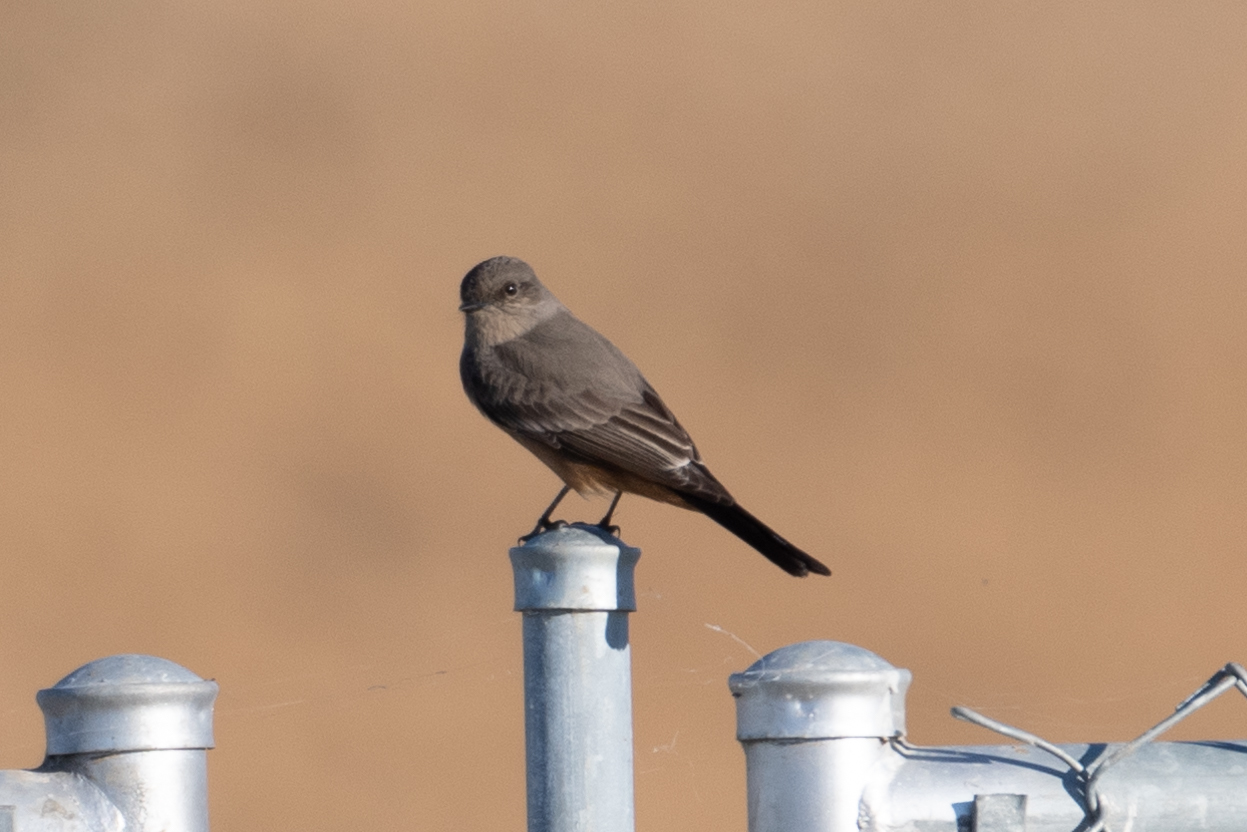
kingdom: Animalia
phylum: Chordata
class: Aves
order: Passeriformes
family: Tyrannidae
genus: Sayornis
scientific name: Sayornis saya
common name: Say's phoebe
